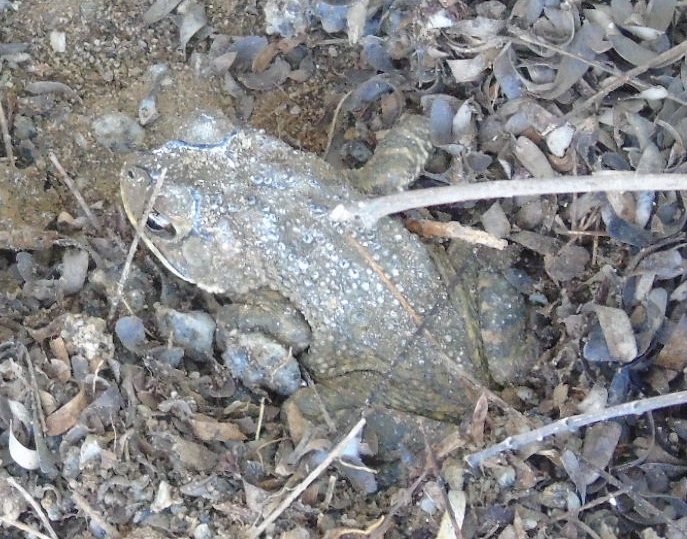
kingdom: Animalia
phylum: Chordata
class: Amphibia
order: Anura
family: Bufonidae
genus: Incilius
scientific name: Incilius mazatlanensis
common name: Sinaloa toad
